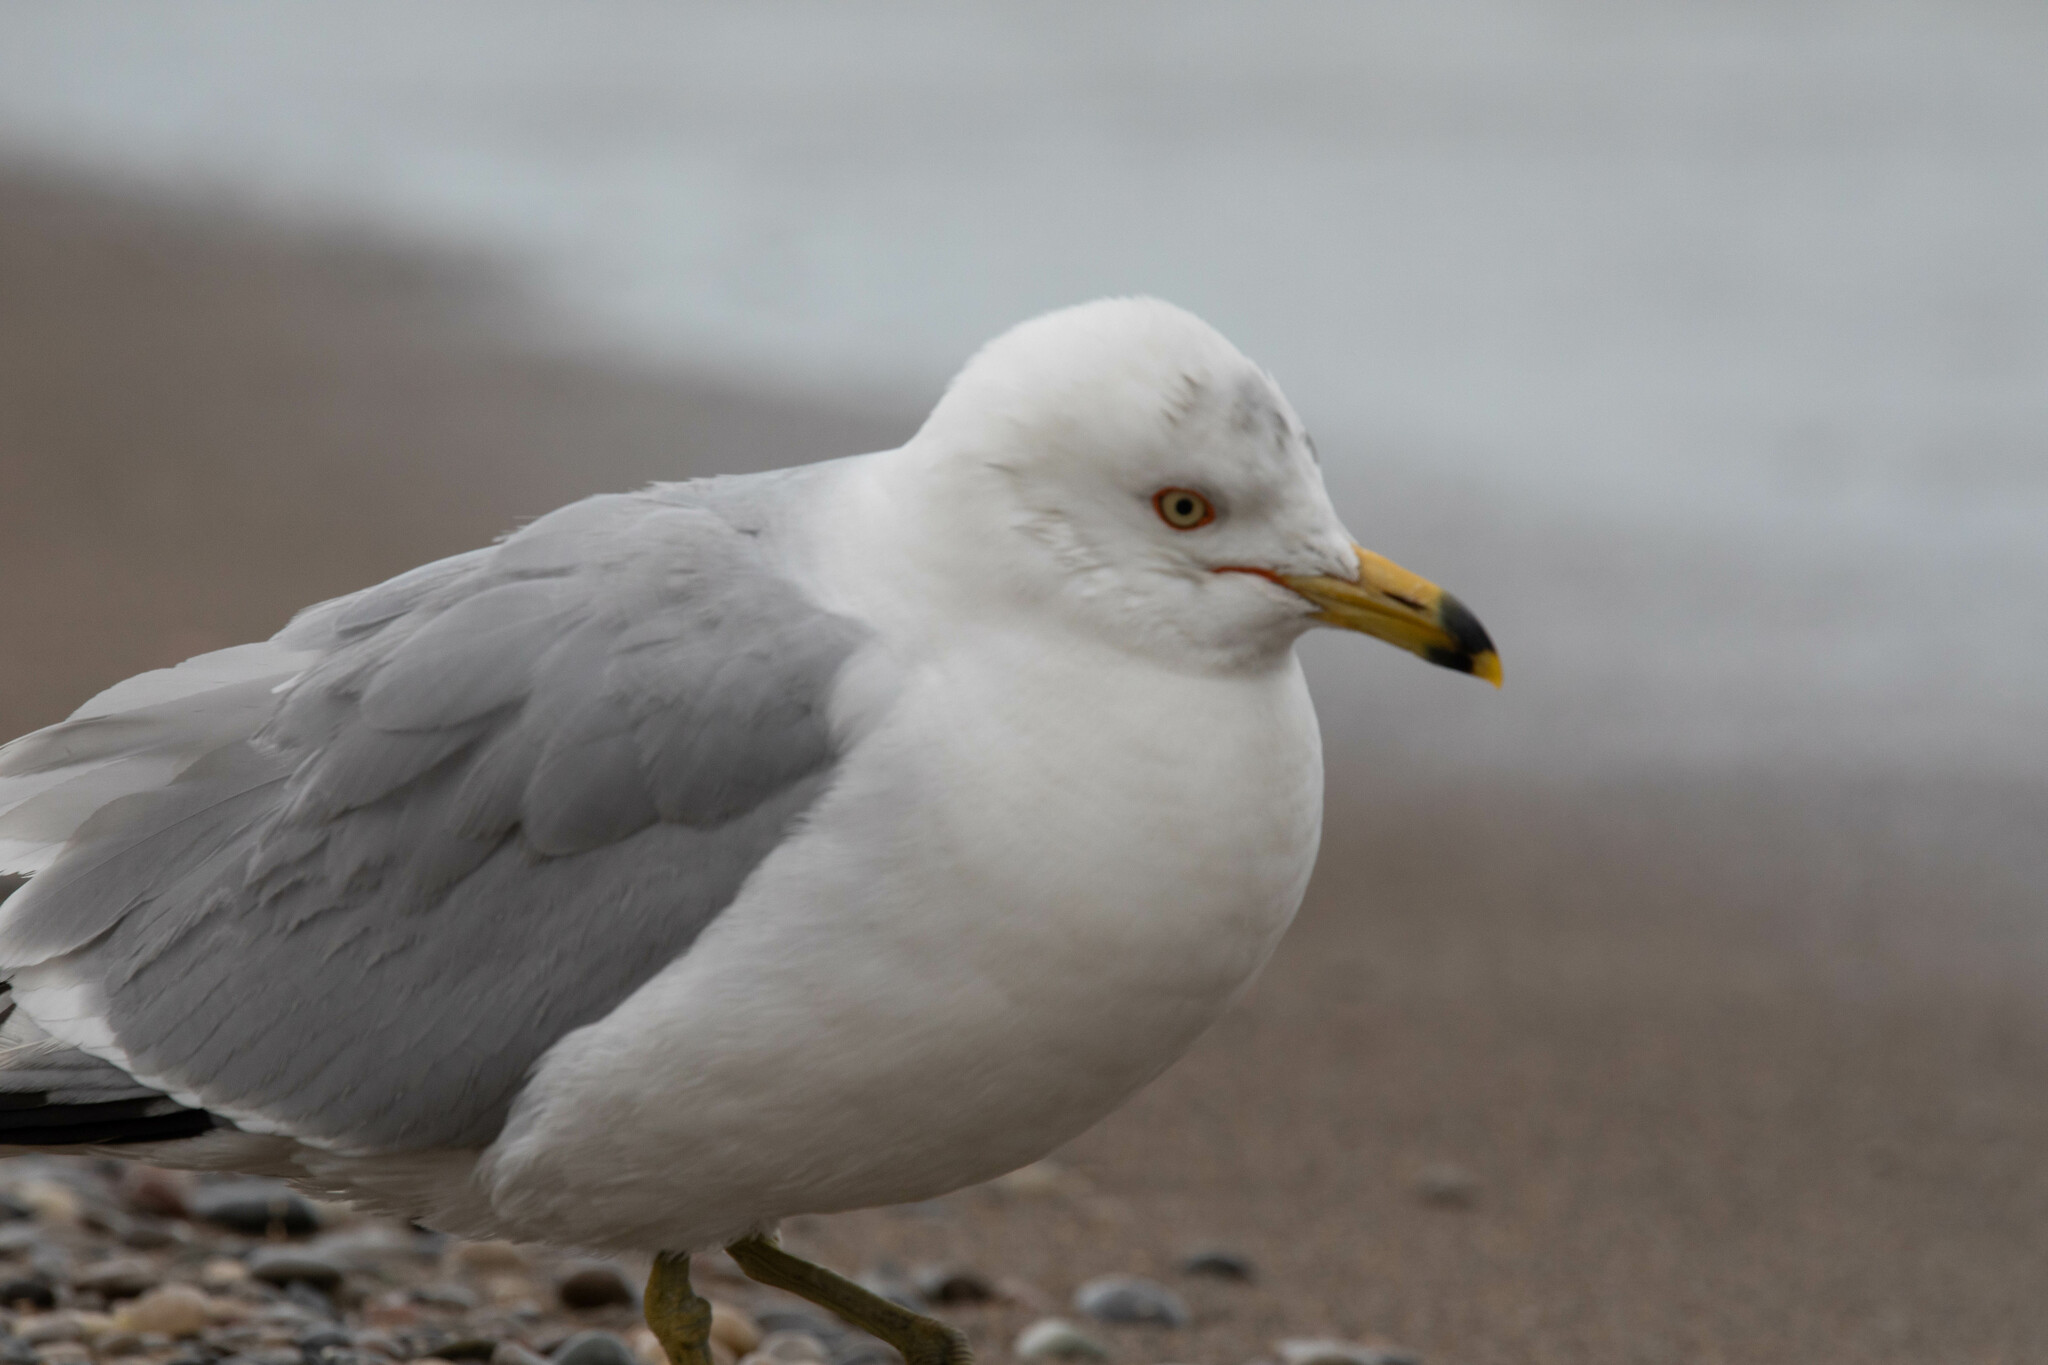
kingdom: Animalia
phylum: Chordata
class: Aves
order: Charadriiformes
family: Laridae
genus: Larus
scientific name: Larus delawarensis
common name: Ring-billed gull
